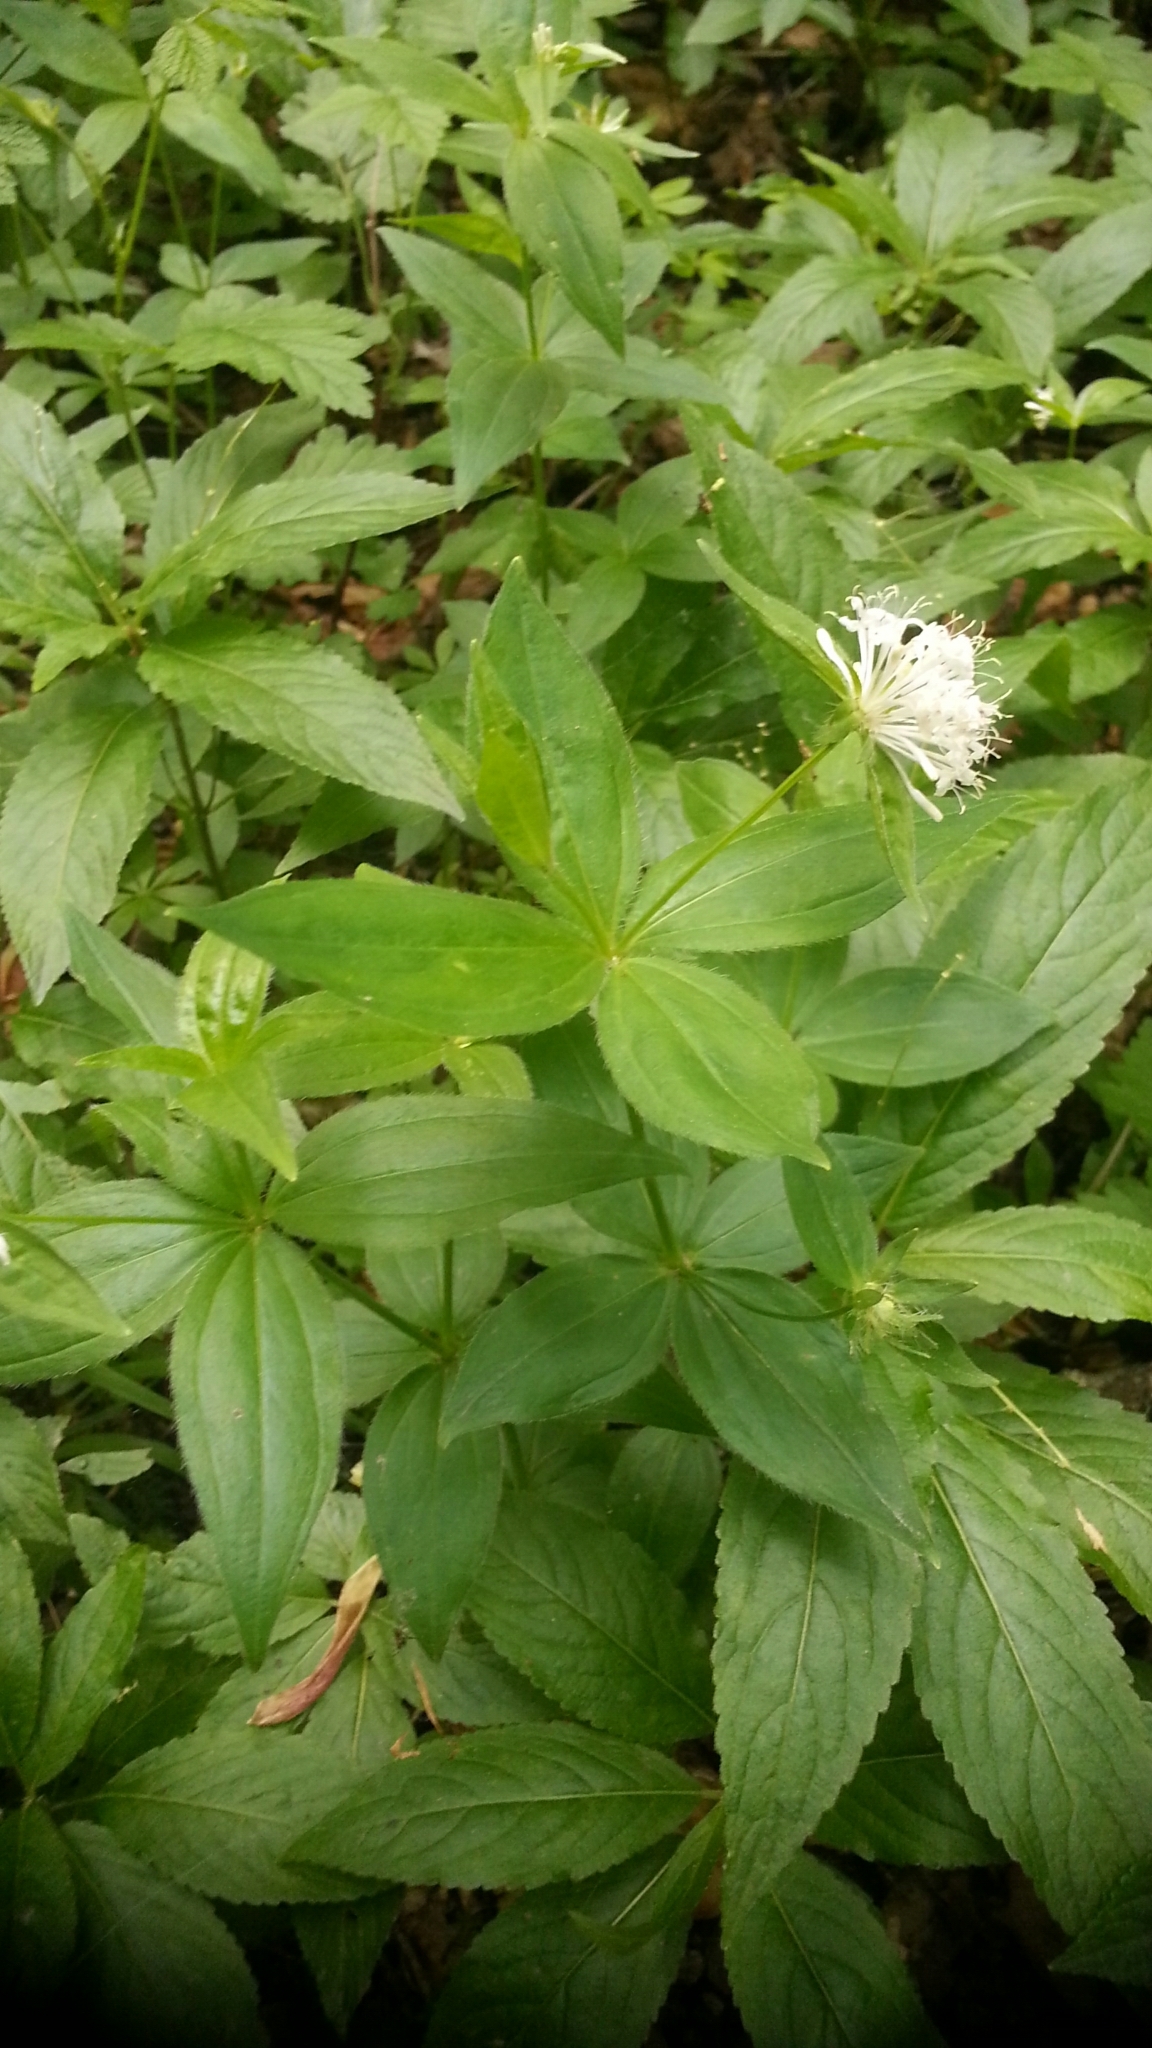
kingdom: Plantae
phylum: Tracheophyta
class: Magnoliopsida
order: Gentianales
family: Rubiaceae
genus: Asperula
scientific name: Asperula taurina
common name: Pink woodruff
